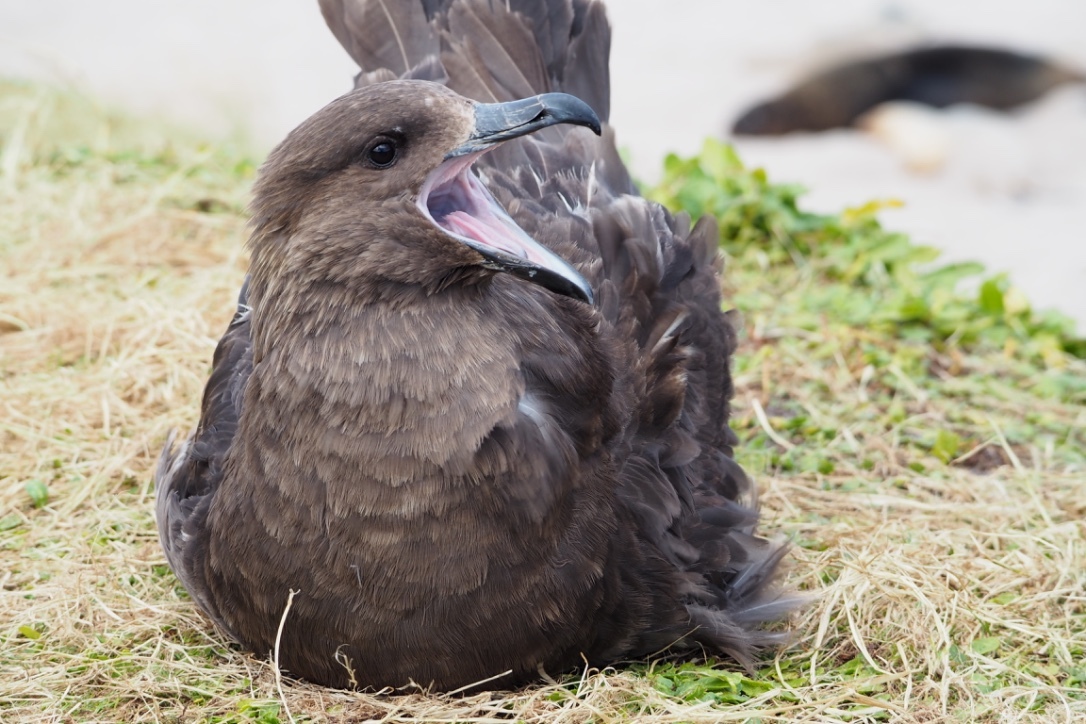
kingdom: Animalia
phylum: Chordata
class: Aves
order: Charadriiformes
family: Stercorariidae
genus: Stercorarius
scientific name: Stercorarius antarcticus
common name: Brown skua
